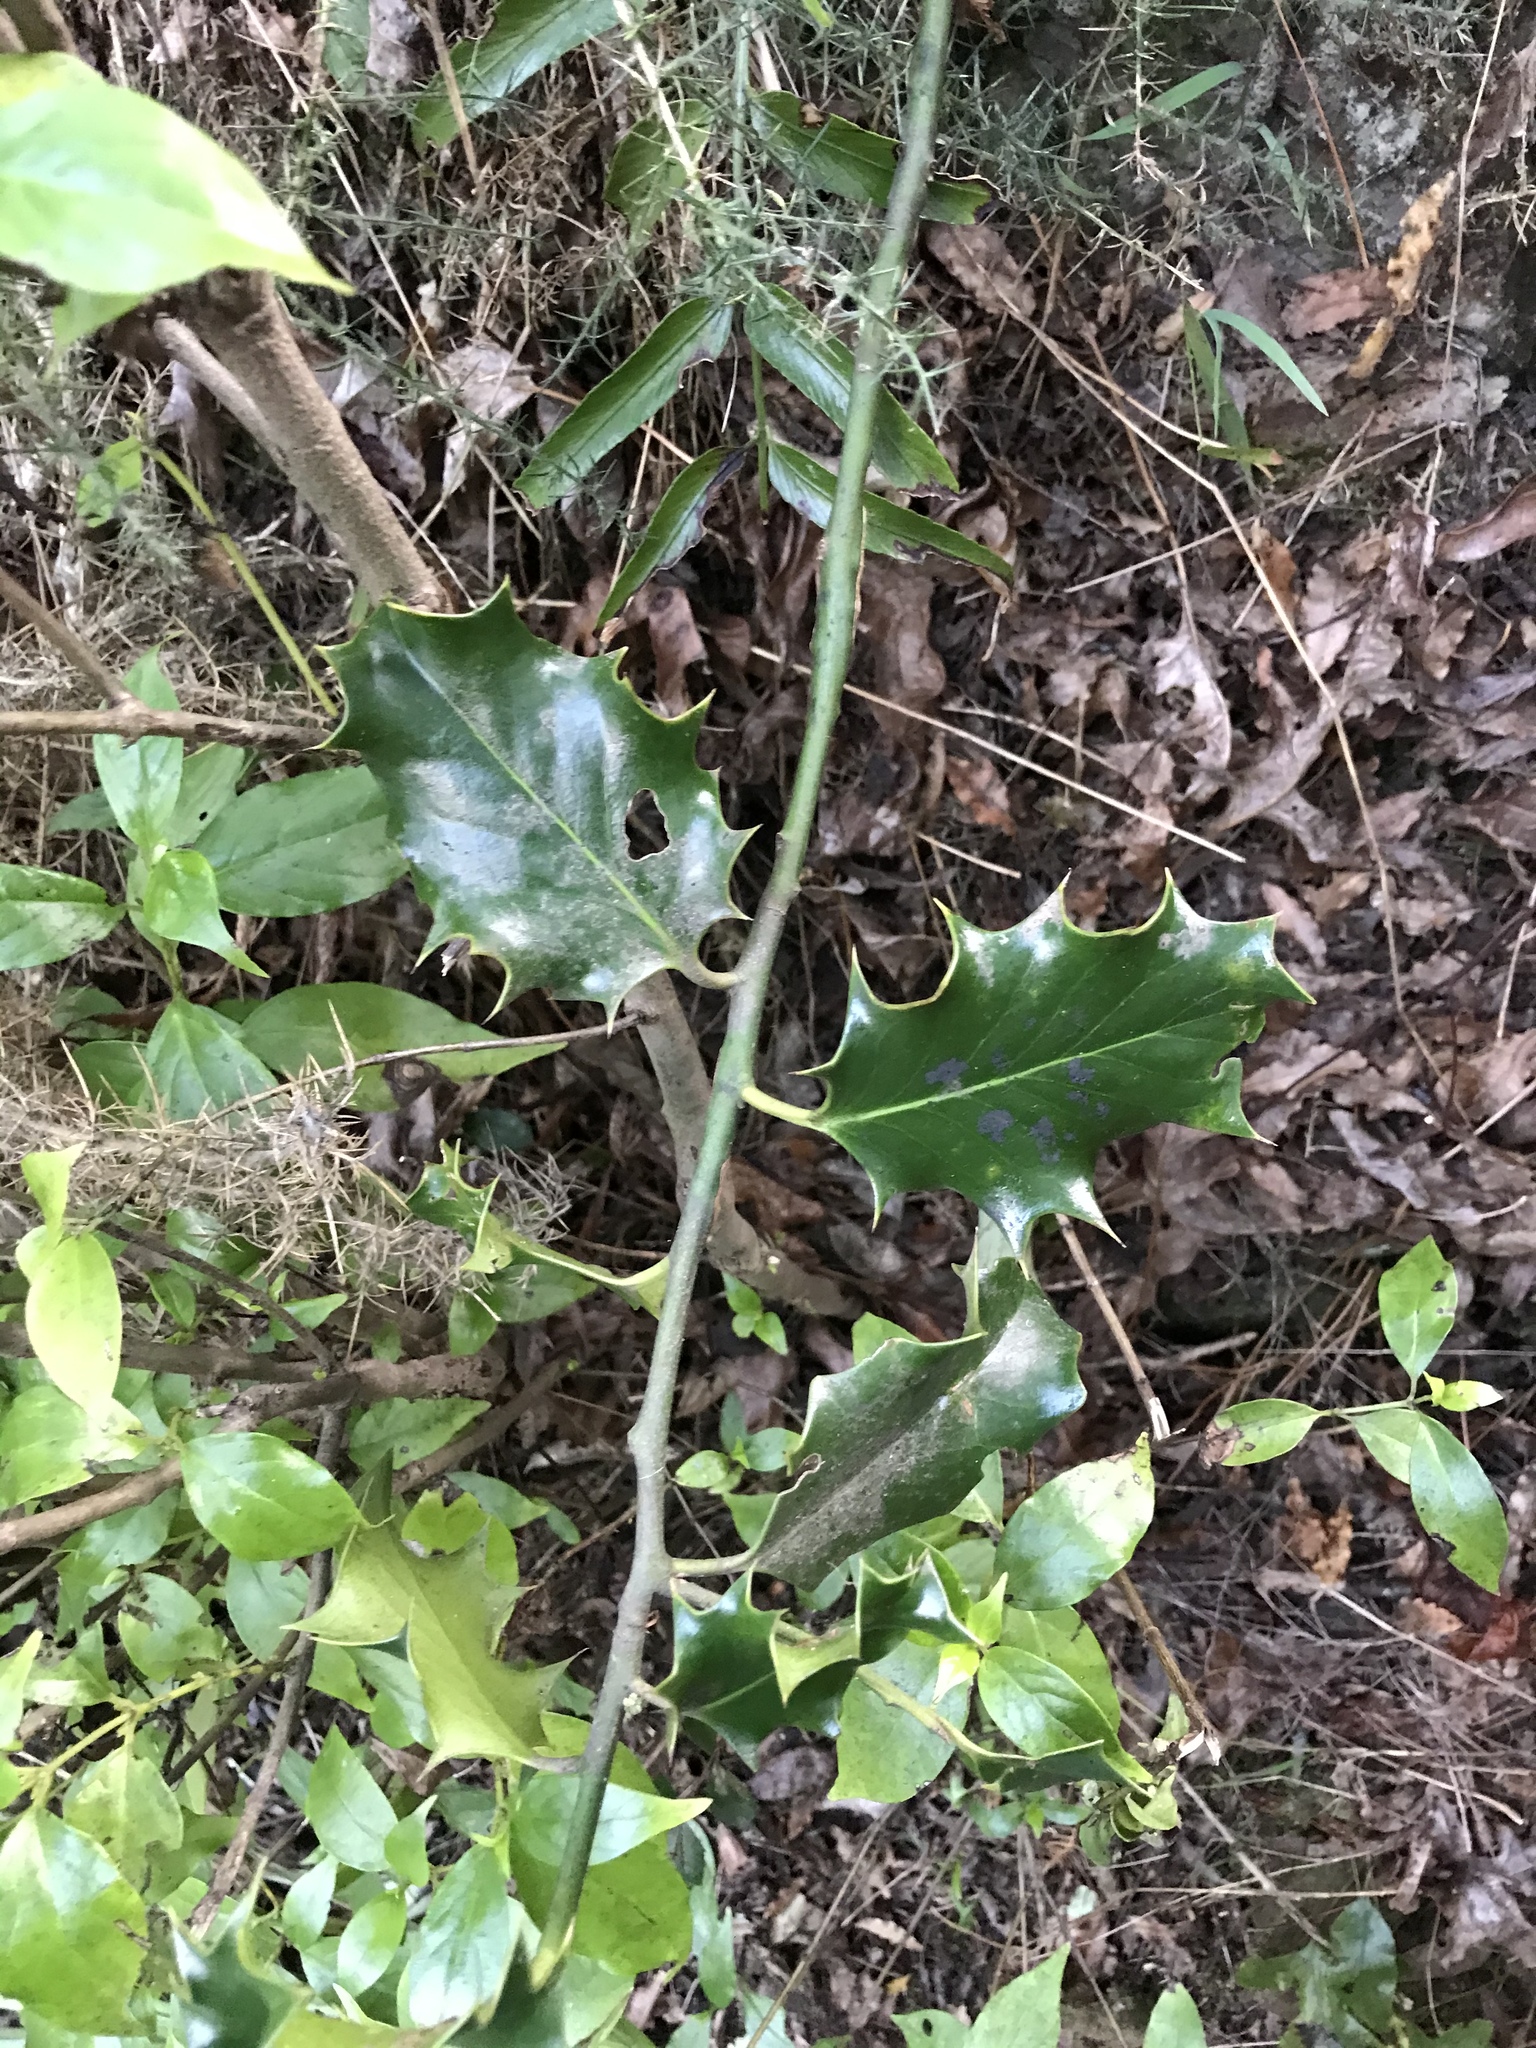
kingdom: Plantae
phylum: Tracheophyta
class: Magnoliopsida
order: Aquifoliales
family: Aquifoliaceae
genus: Ilex
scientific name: Ilex aquifolium
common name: English holly
